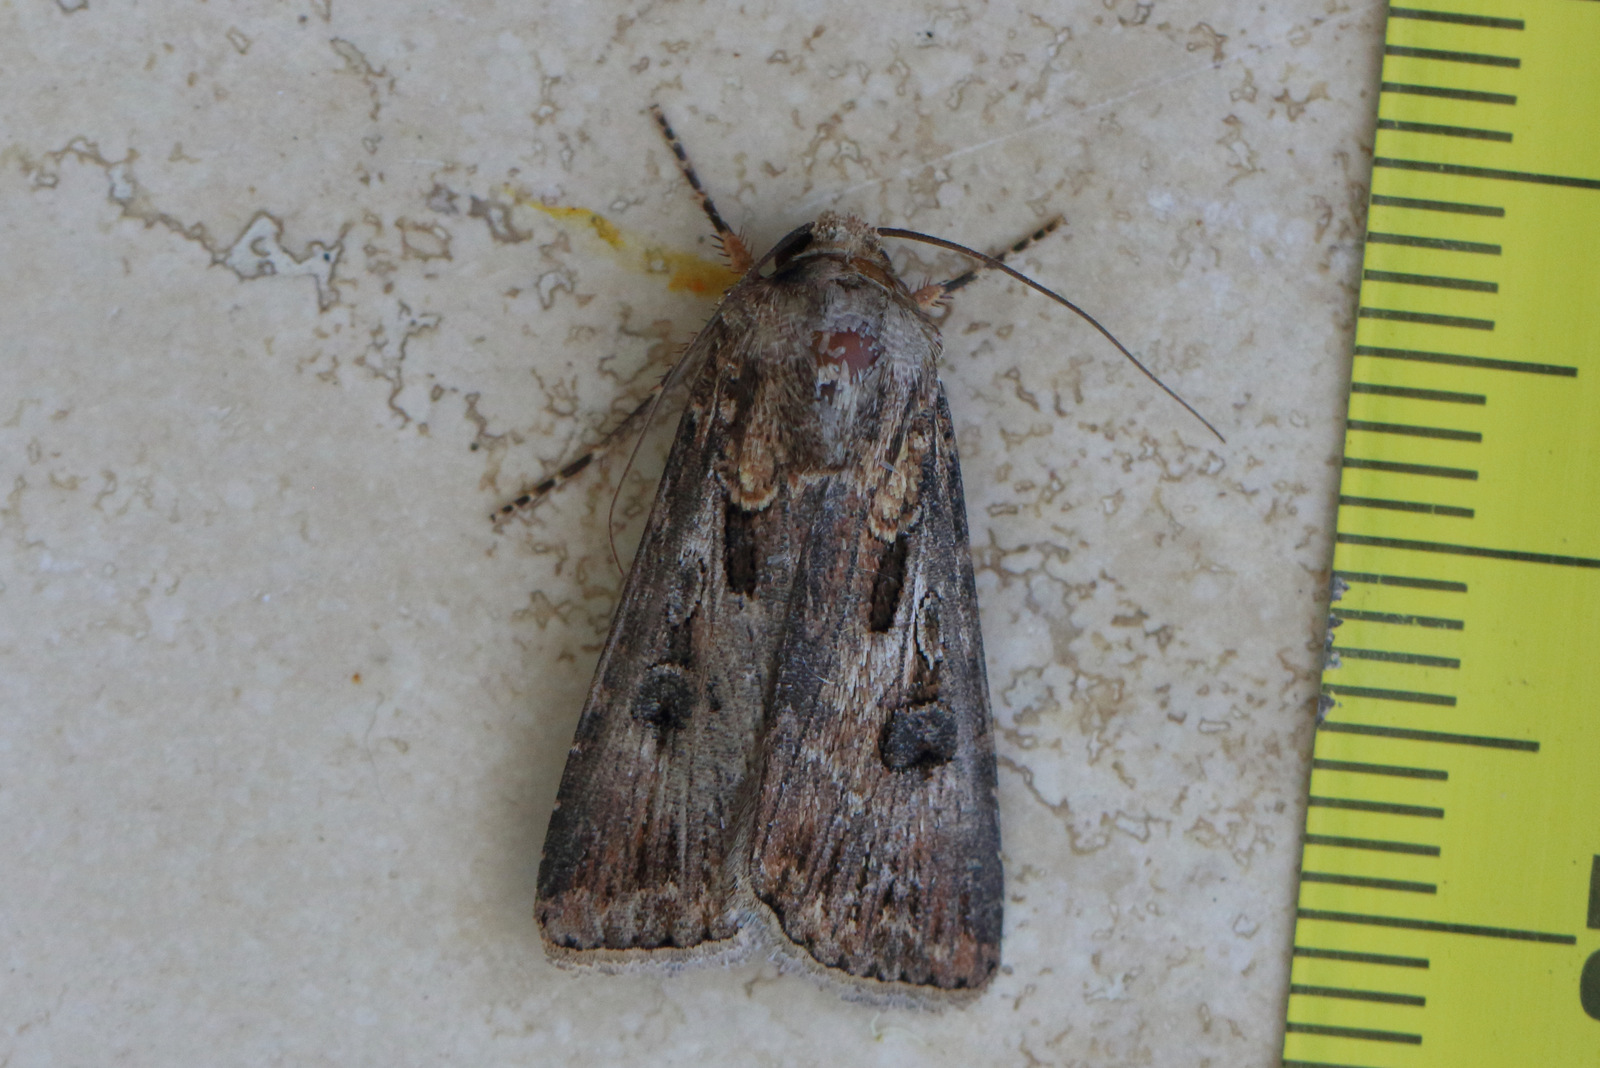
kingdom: Animalia
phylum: Arthropoda
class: Insecta
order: Lepidoptera
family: Noctuidae
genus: Agrotis
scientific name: Agrotis munda
